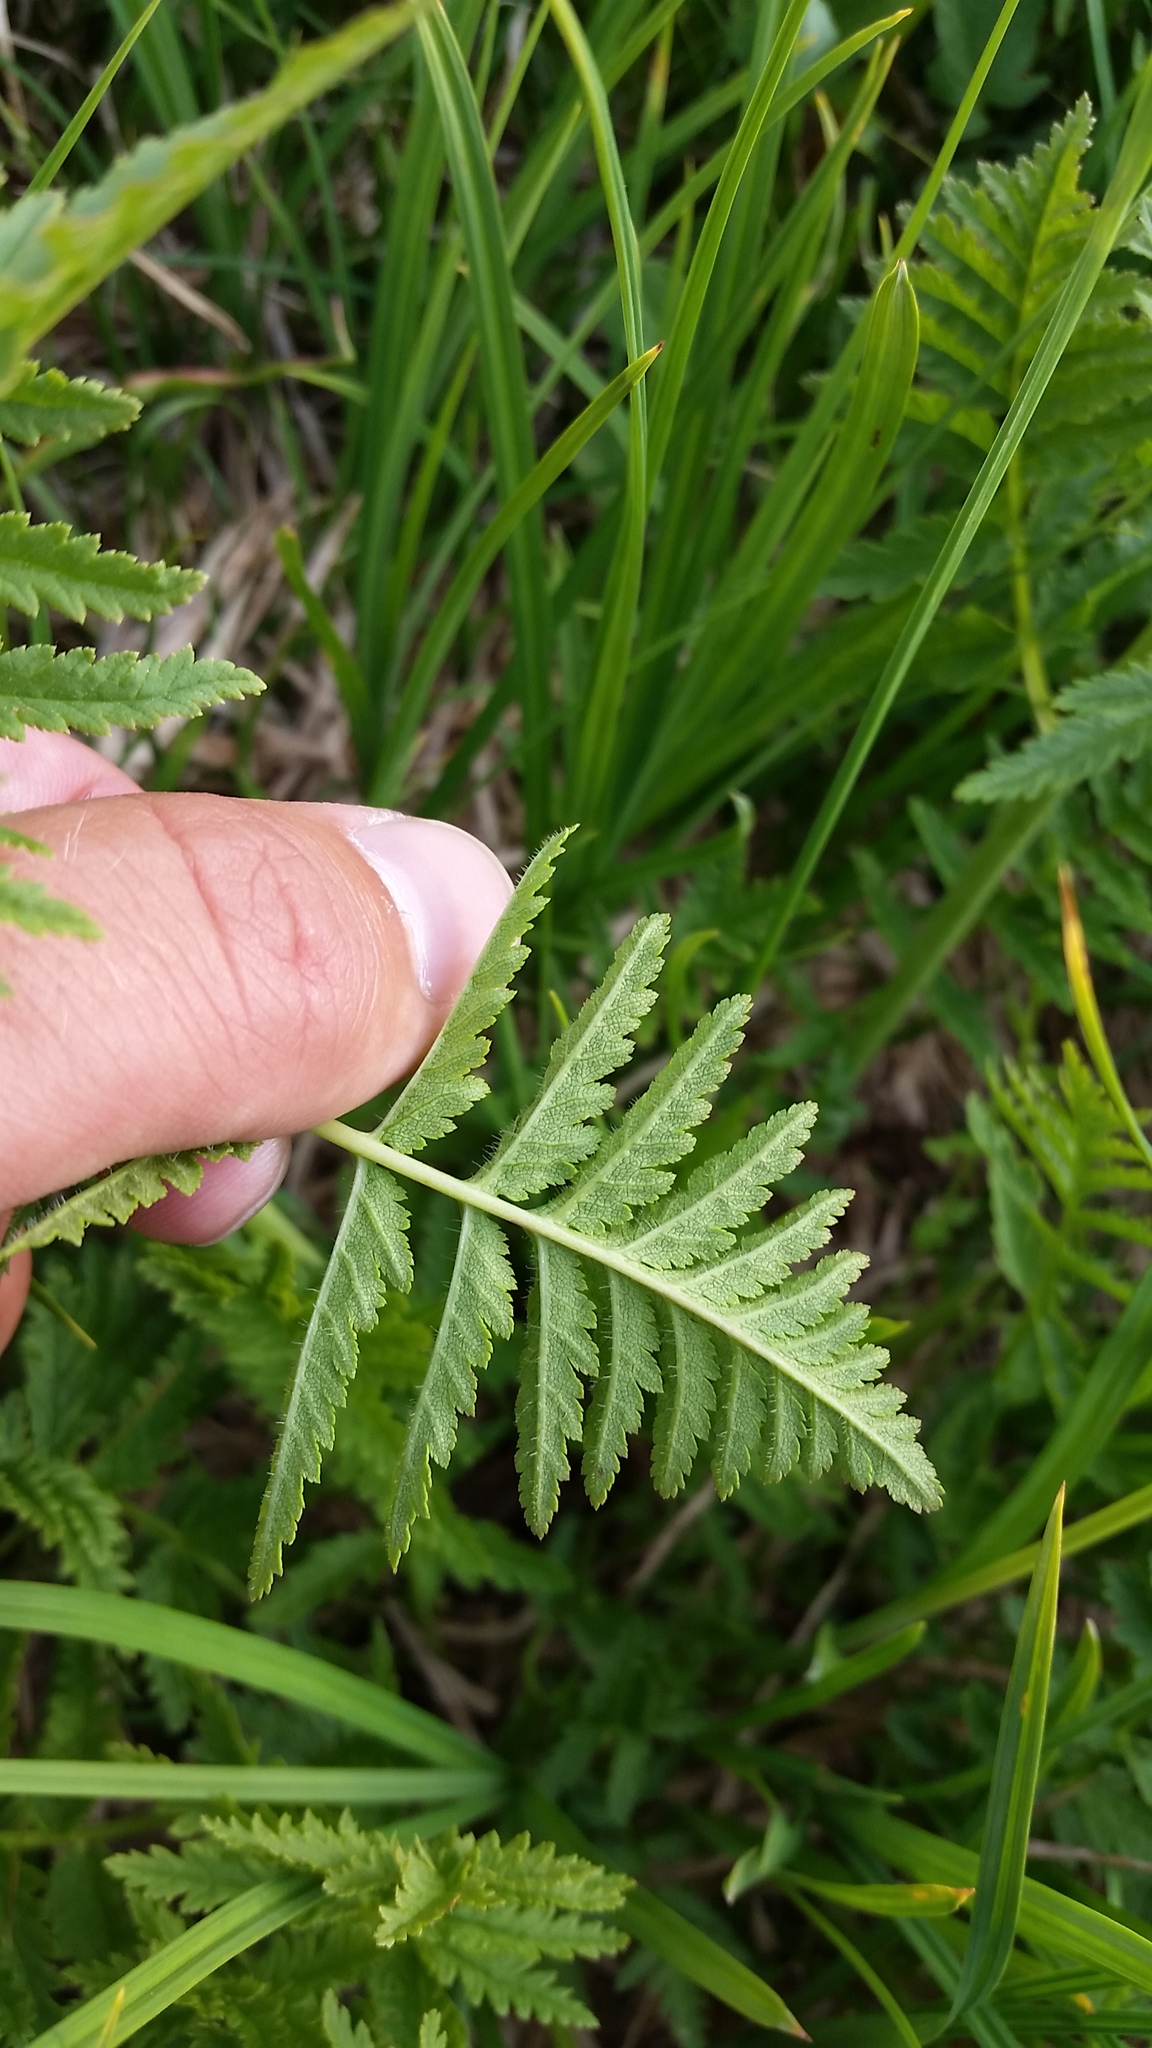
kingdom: Plantae
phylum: Tracheophyta
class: Magnoliopsida
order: Lamiales
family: Orobanchaceae
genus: Pedicularis
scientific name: Pedicularis bracteosa
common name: Bracted lousewort
